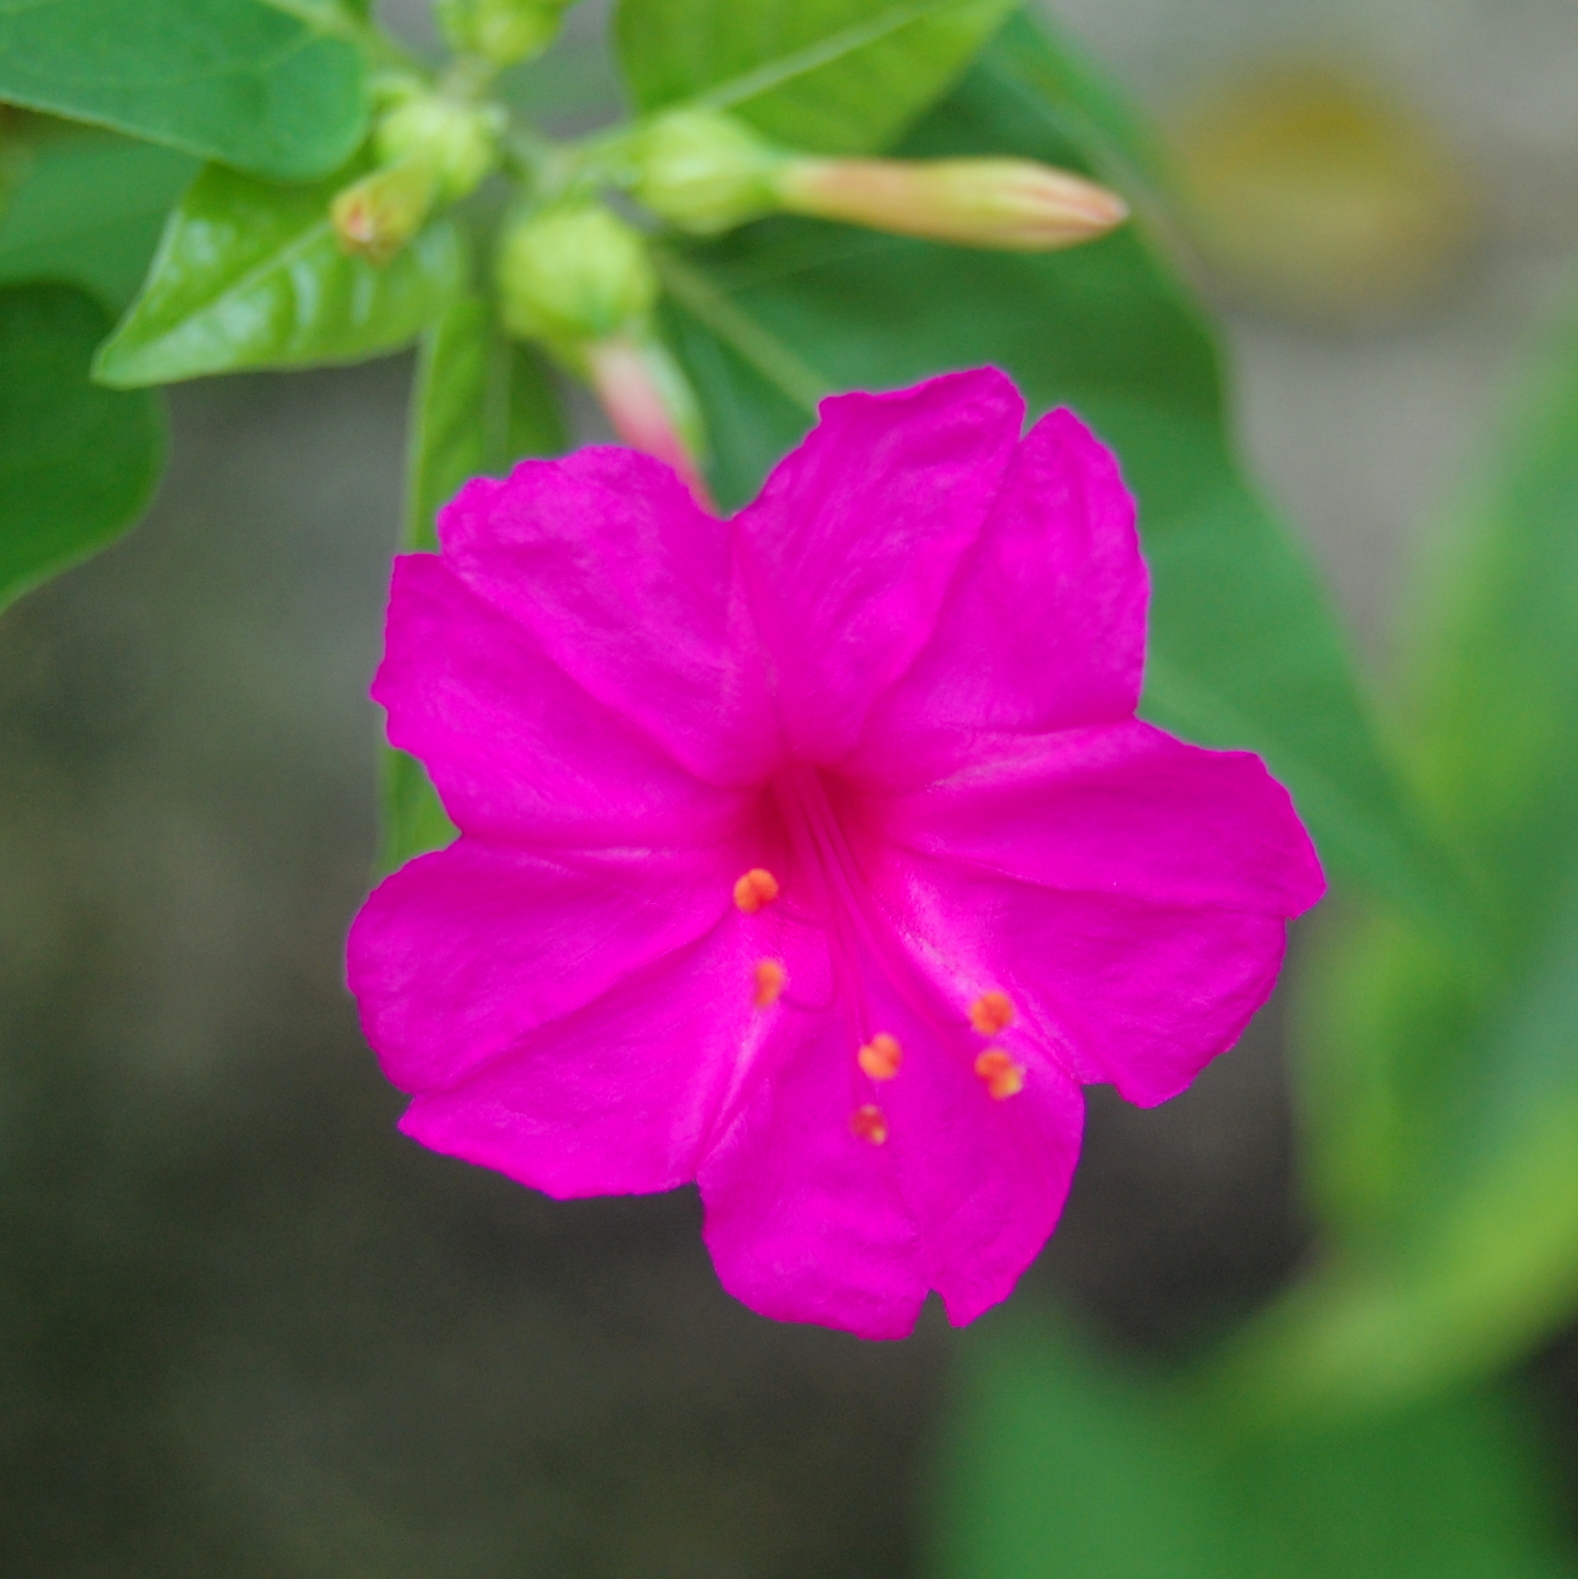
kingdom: Plantae
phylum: Tracheophyta
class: Magnoliopsida
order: Caryophyllales
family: Nyctaginaceae
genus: Mirabilis
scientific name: Mirabilis jalapa
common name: Marvel-of-peru
